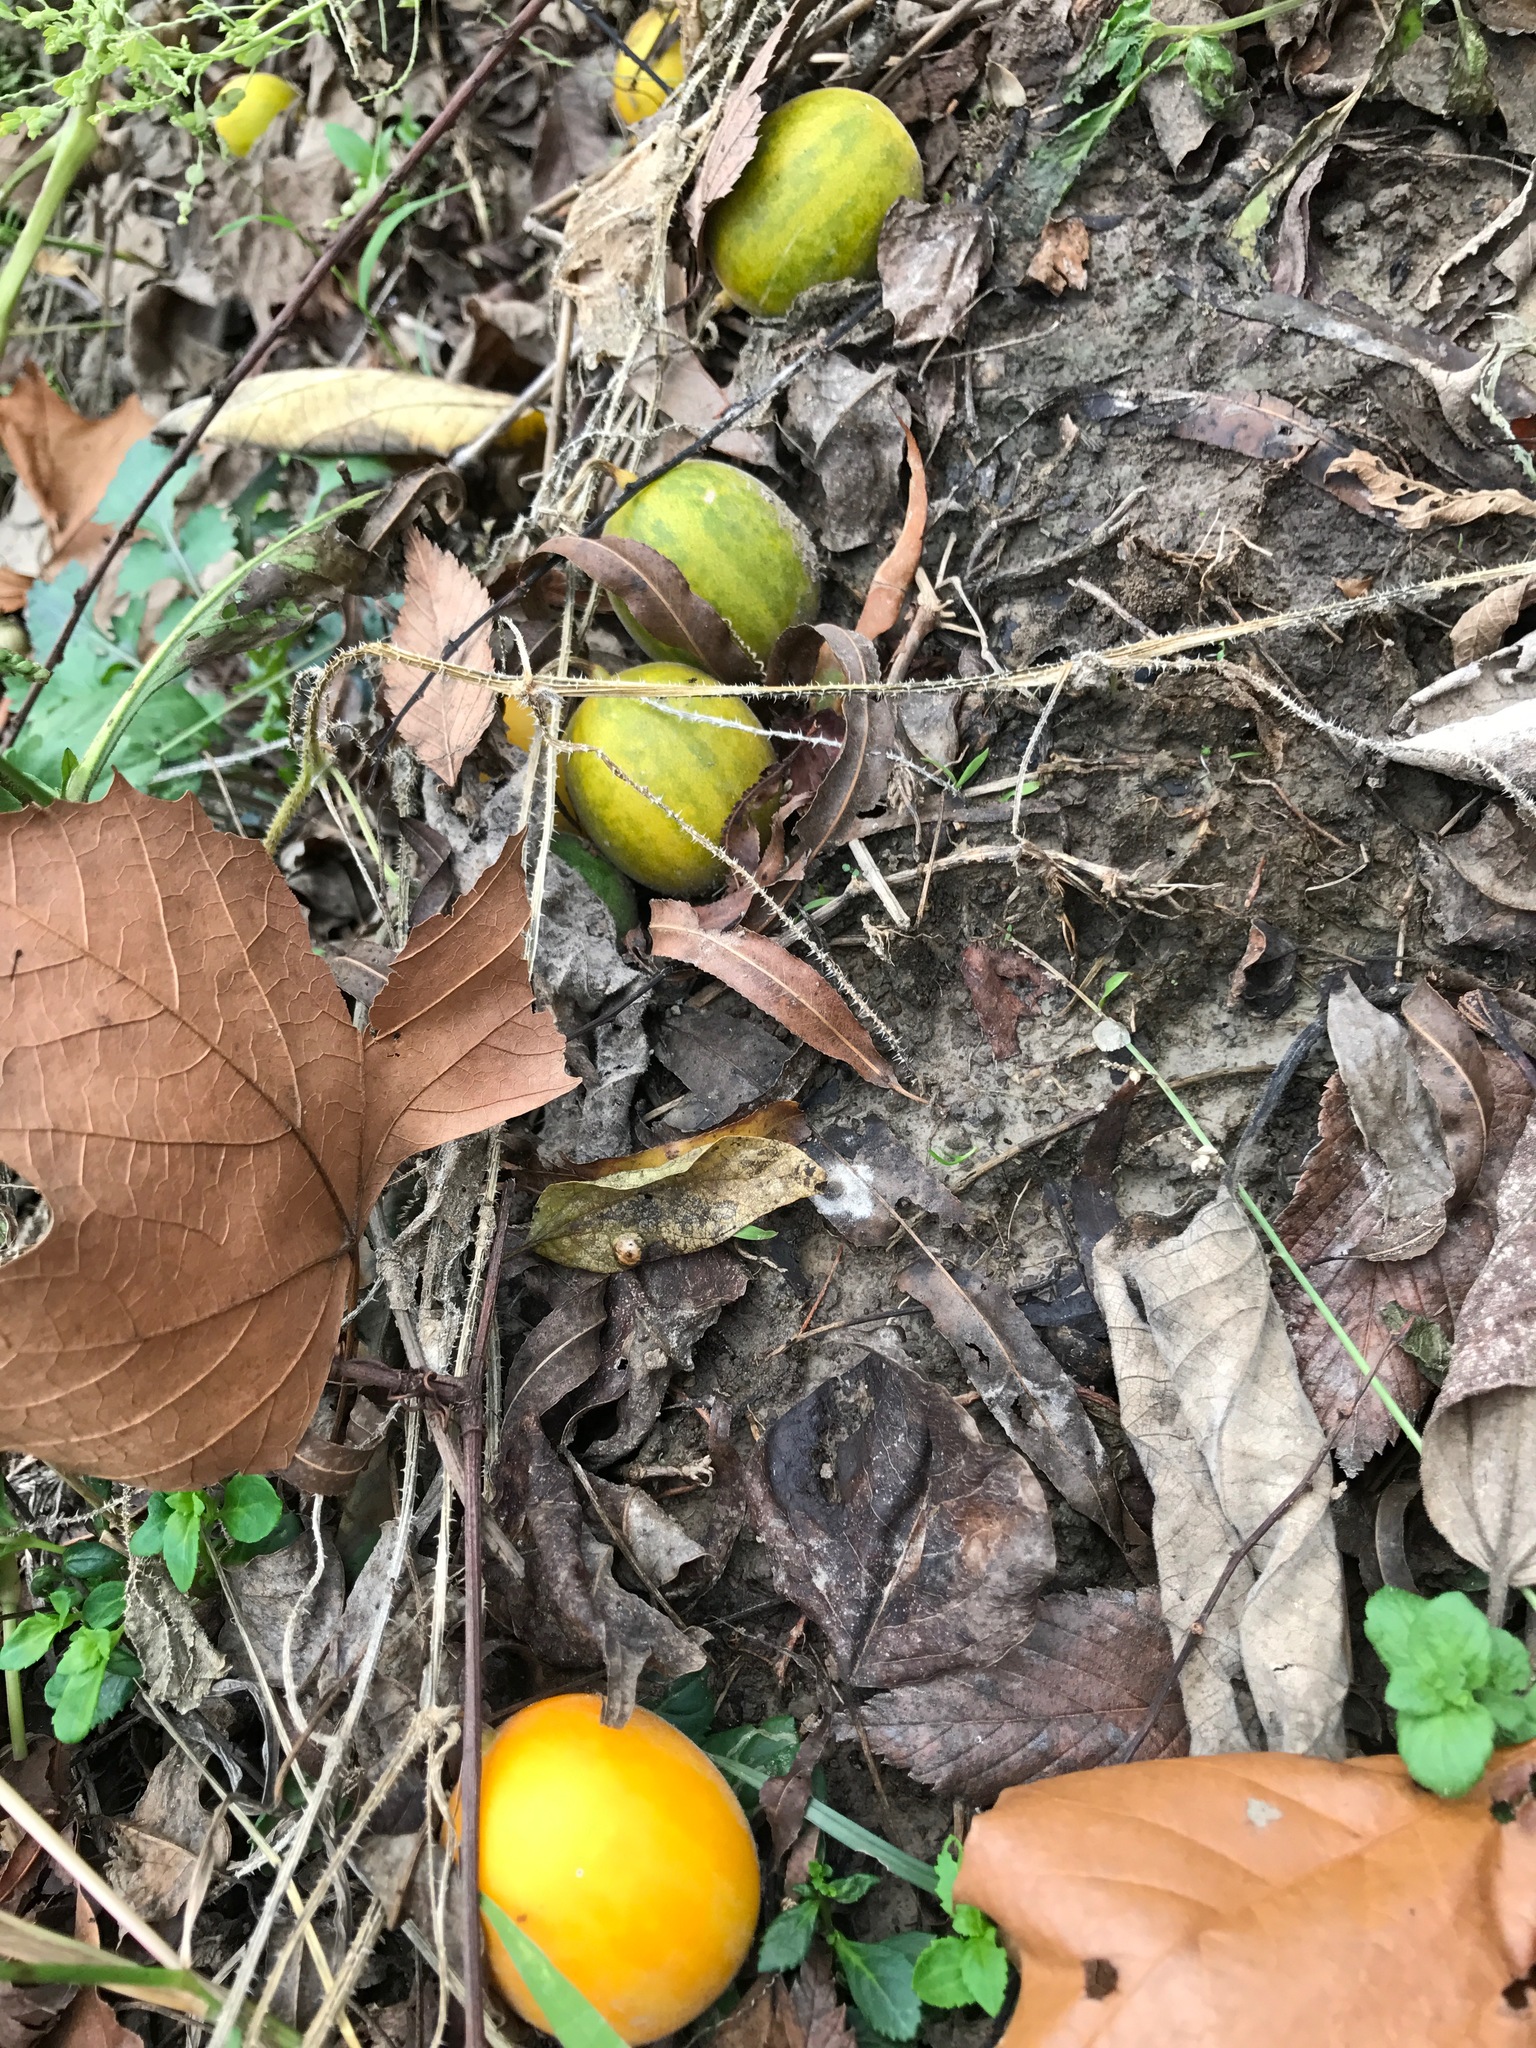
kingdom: Plantae
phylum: Tracheophyta
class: Magnoliopsida
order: Cucurbitales
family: Cucurbitaceae
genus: Cucumis
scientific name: Cucumis melo
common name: Melon
